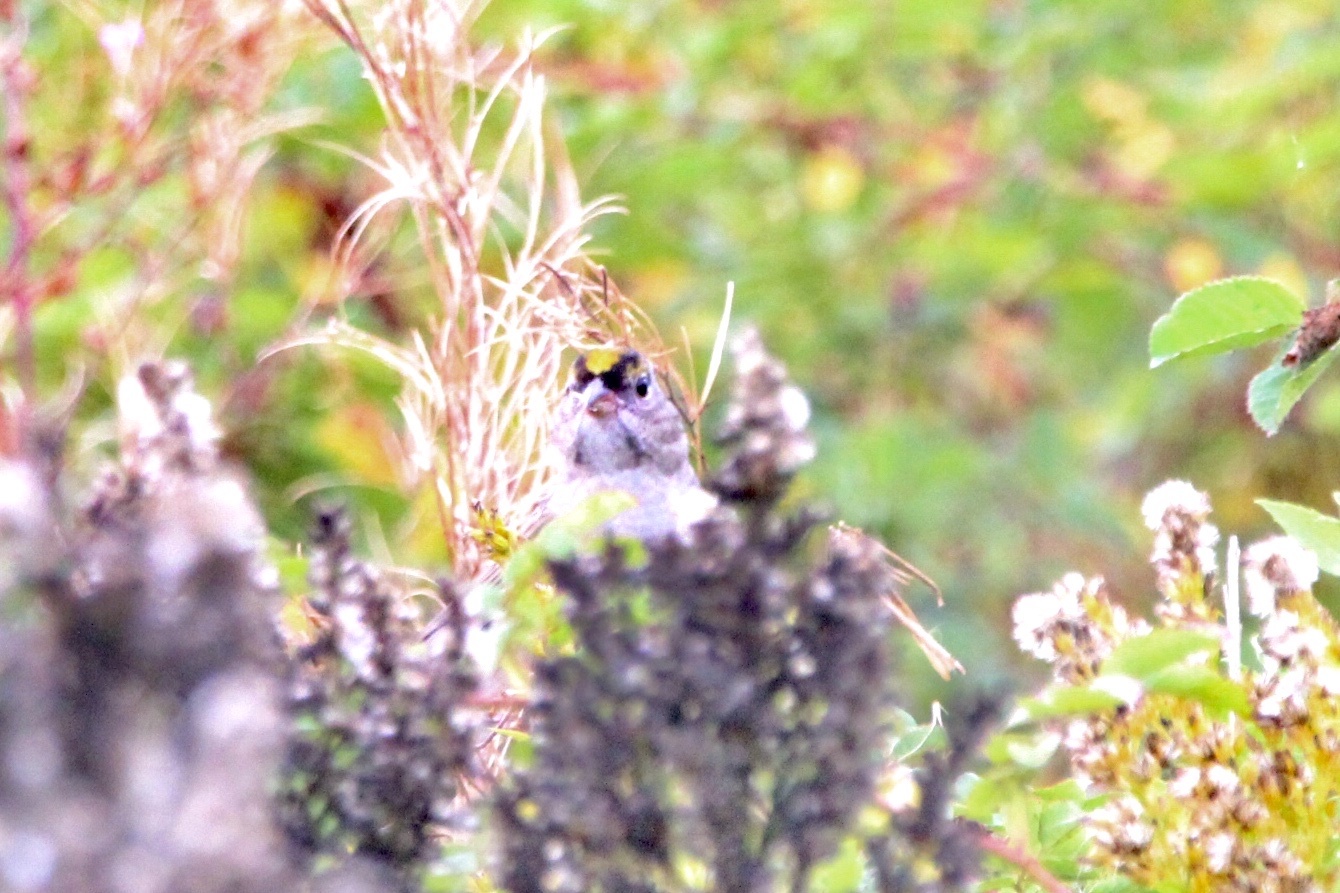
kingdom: Animalia
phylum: Chordata
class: Aves
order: Passeriformes
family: Passerellidae
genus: Zonotrichia
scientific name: Zonotrichia atricapilla
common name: Golden-crowned sparrow
